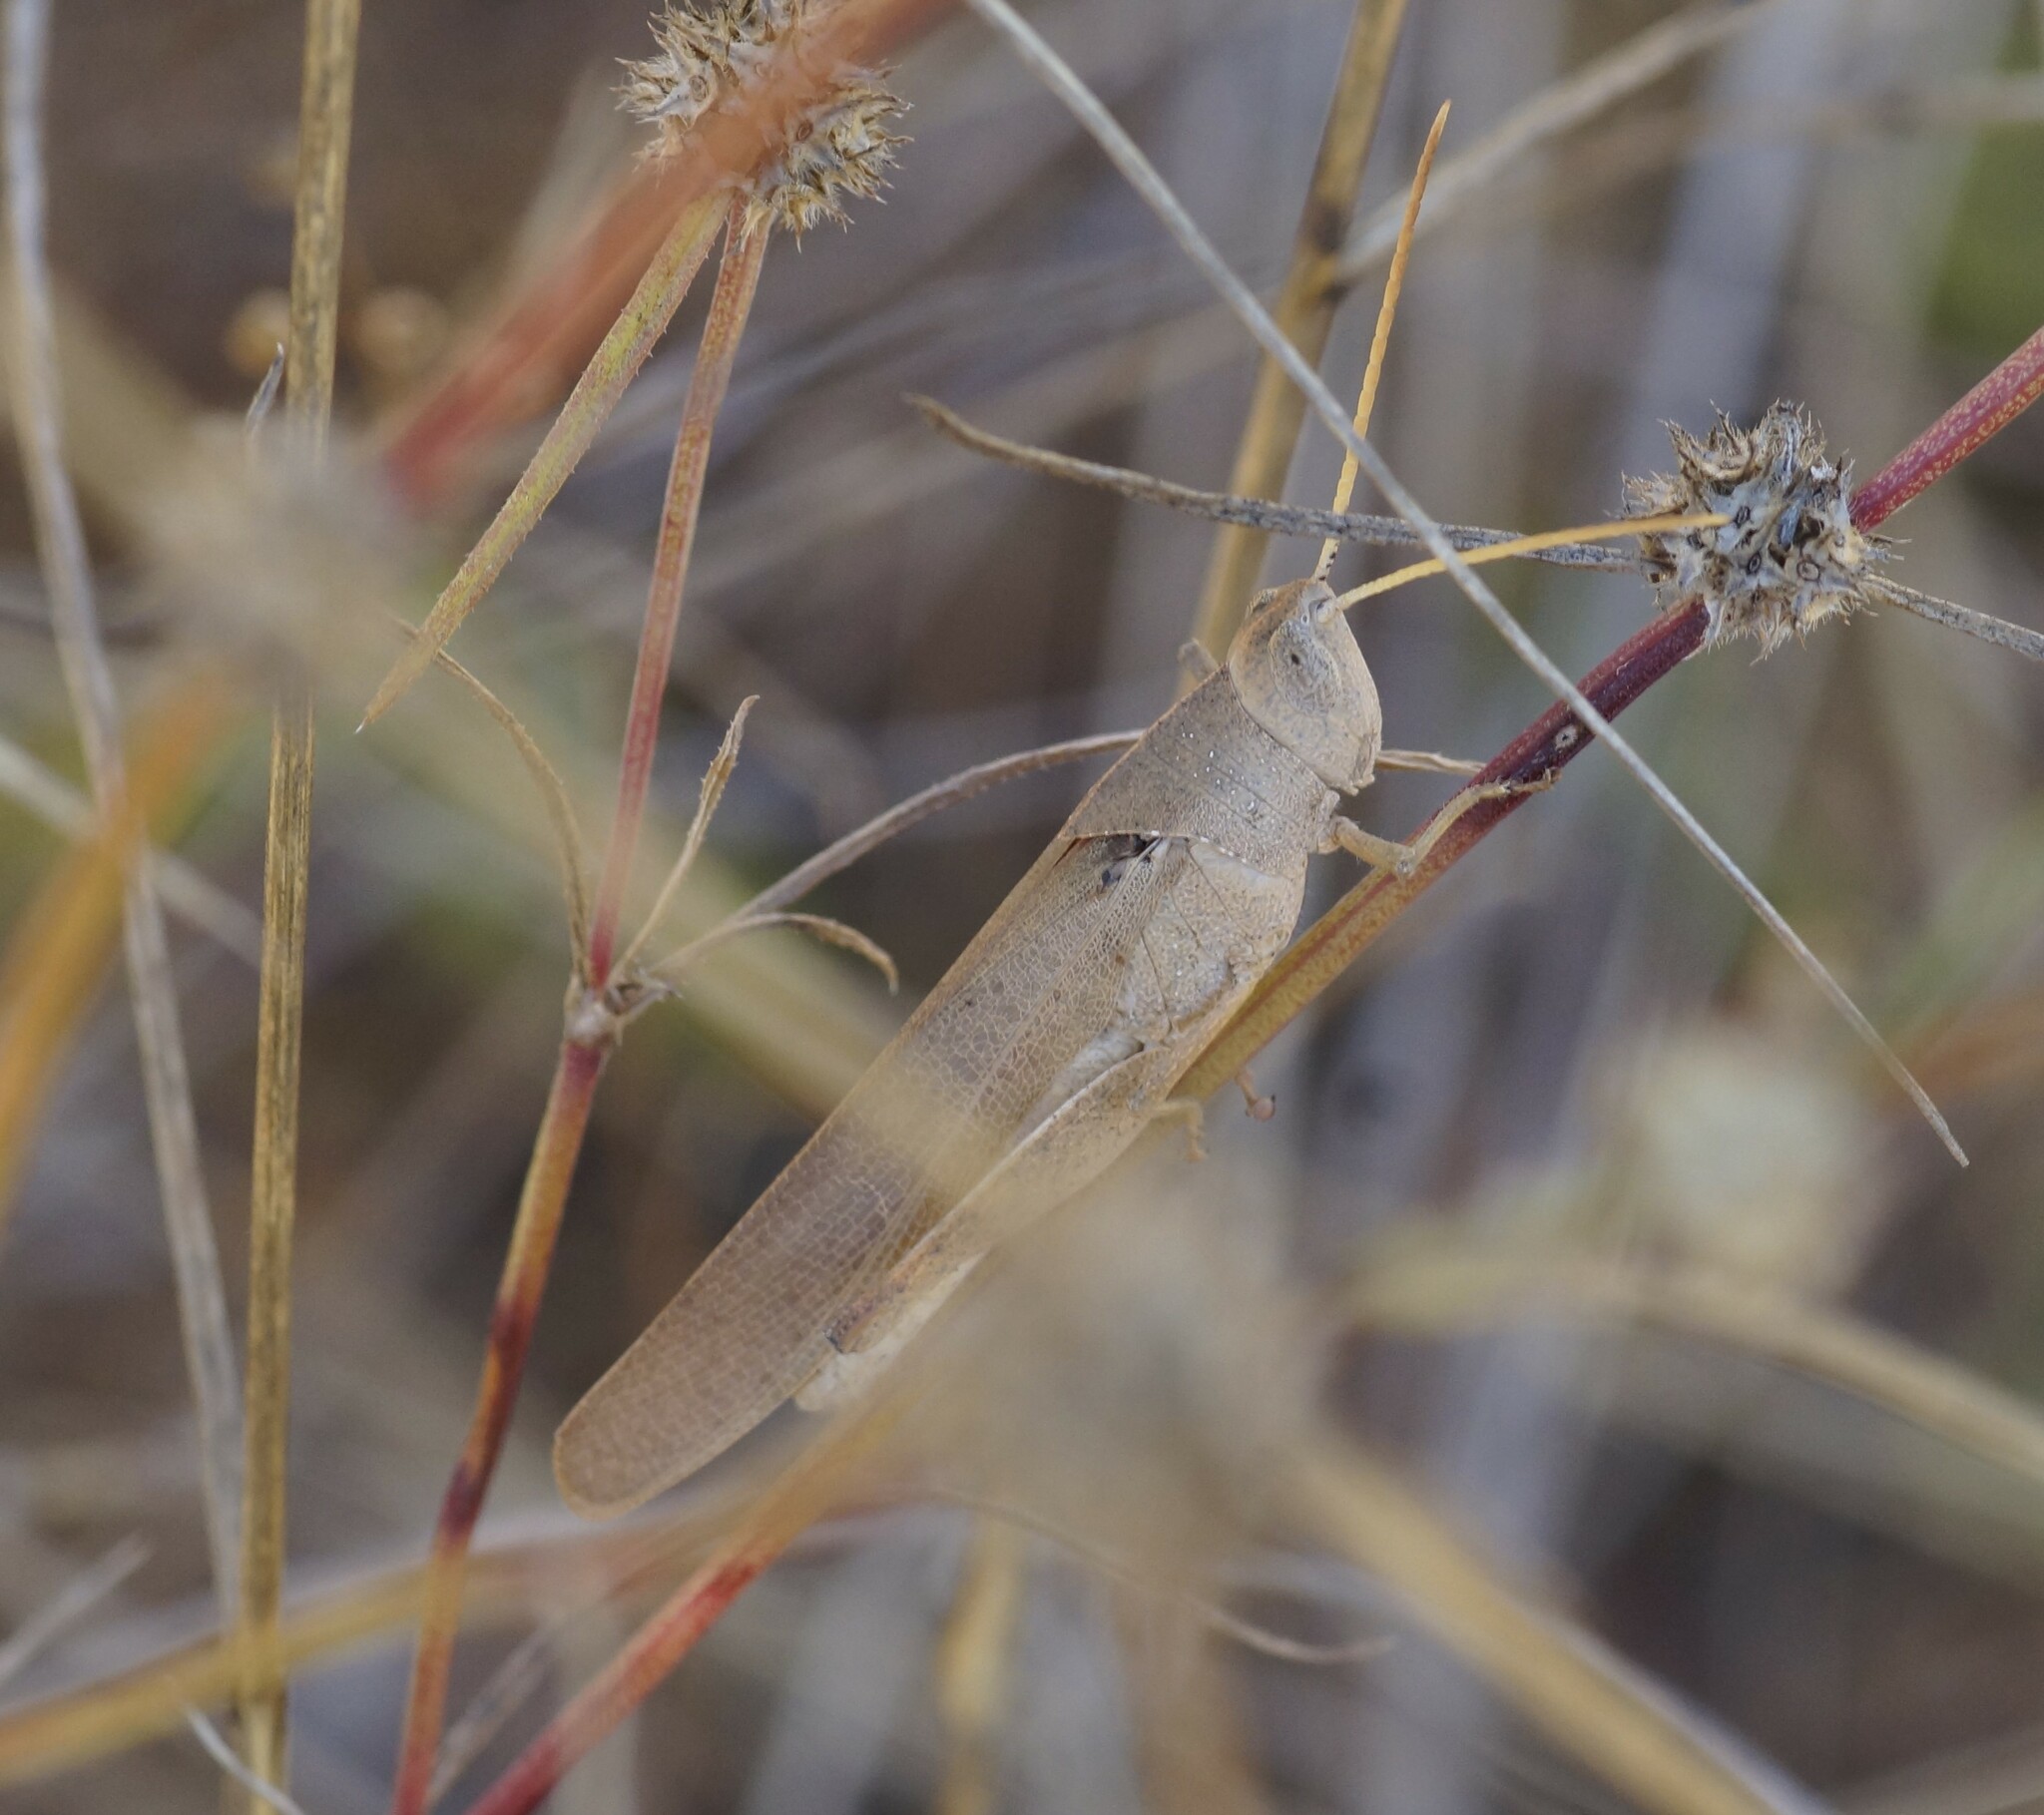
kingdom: Animalia
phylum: Arthropoda
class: Insecta
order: Orthoptera
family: Acrididae
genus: Goniaea
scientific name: Goniaea furcifera
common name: Tropical gumleaf grasshopper
